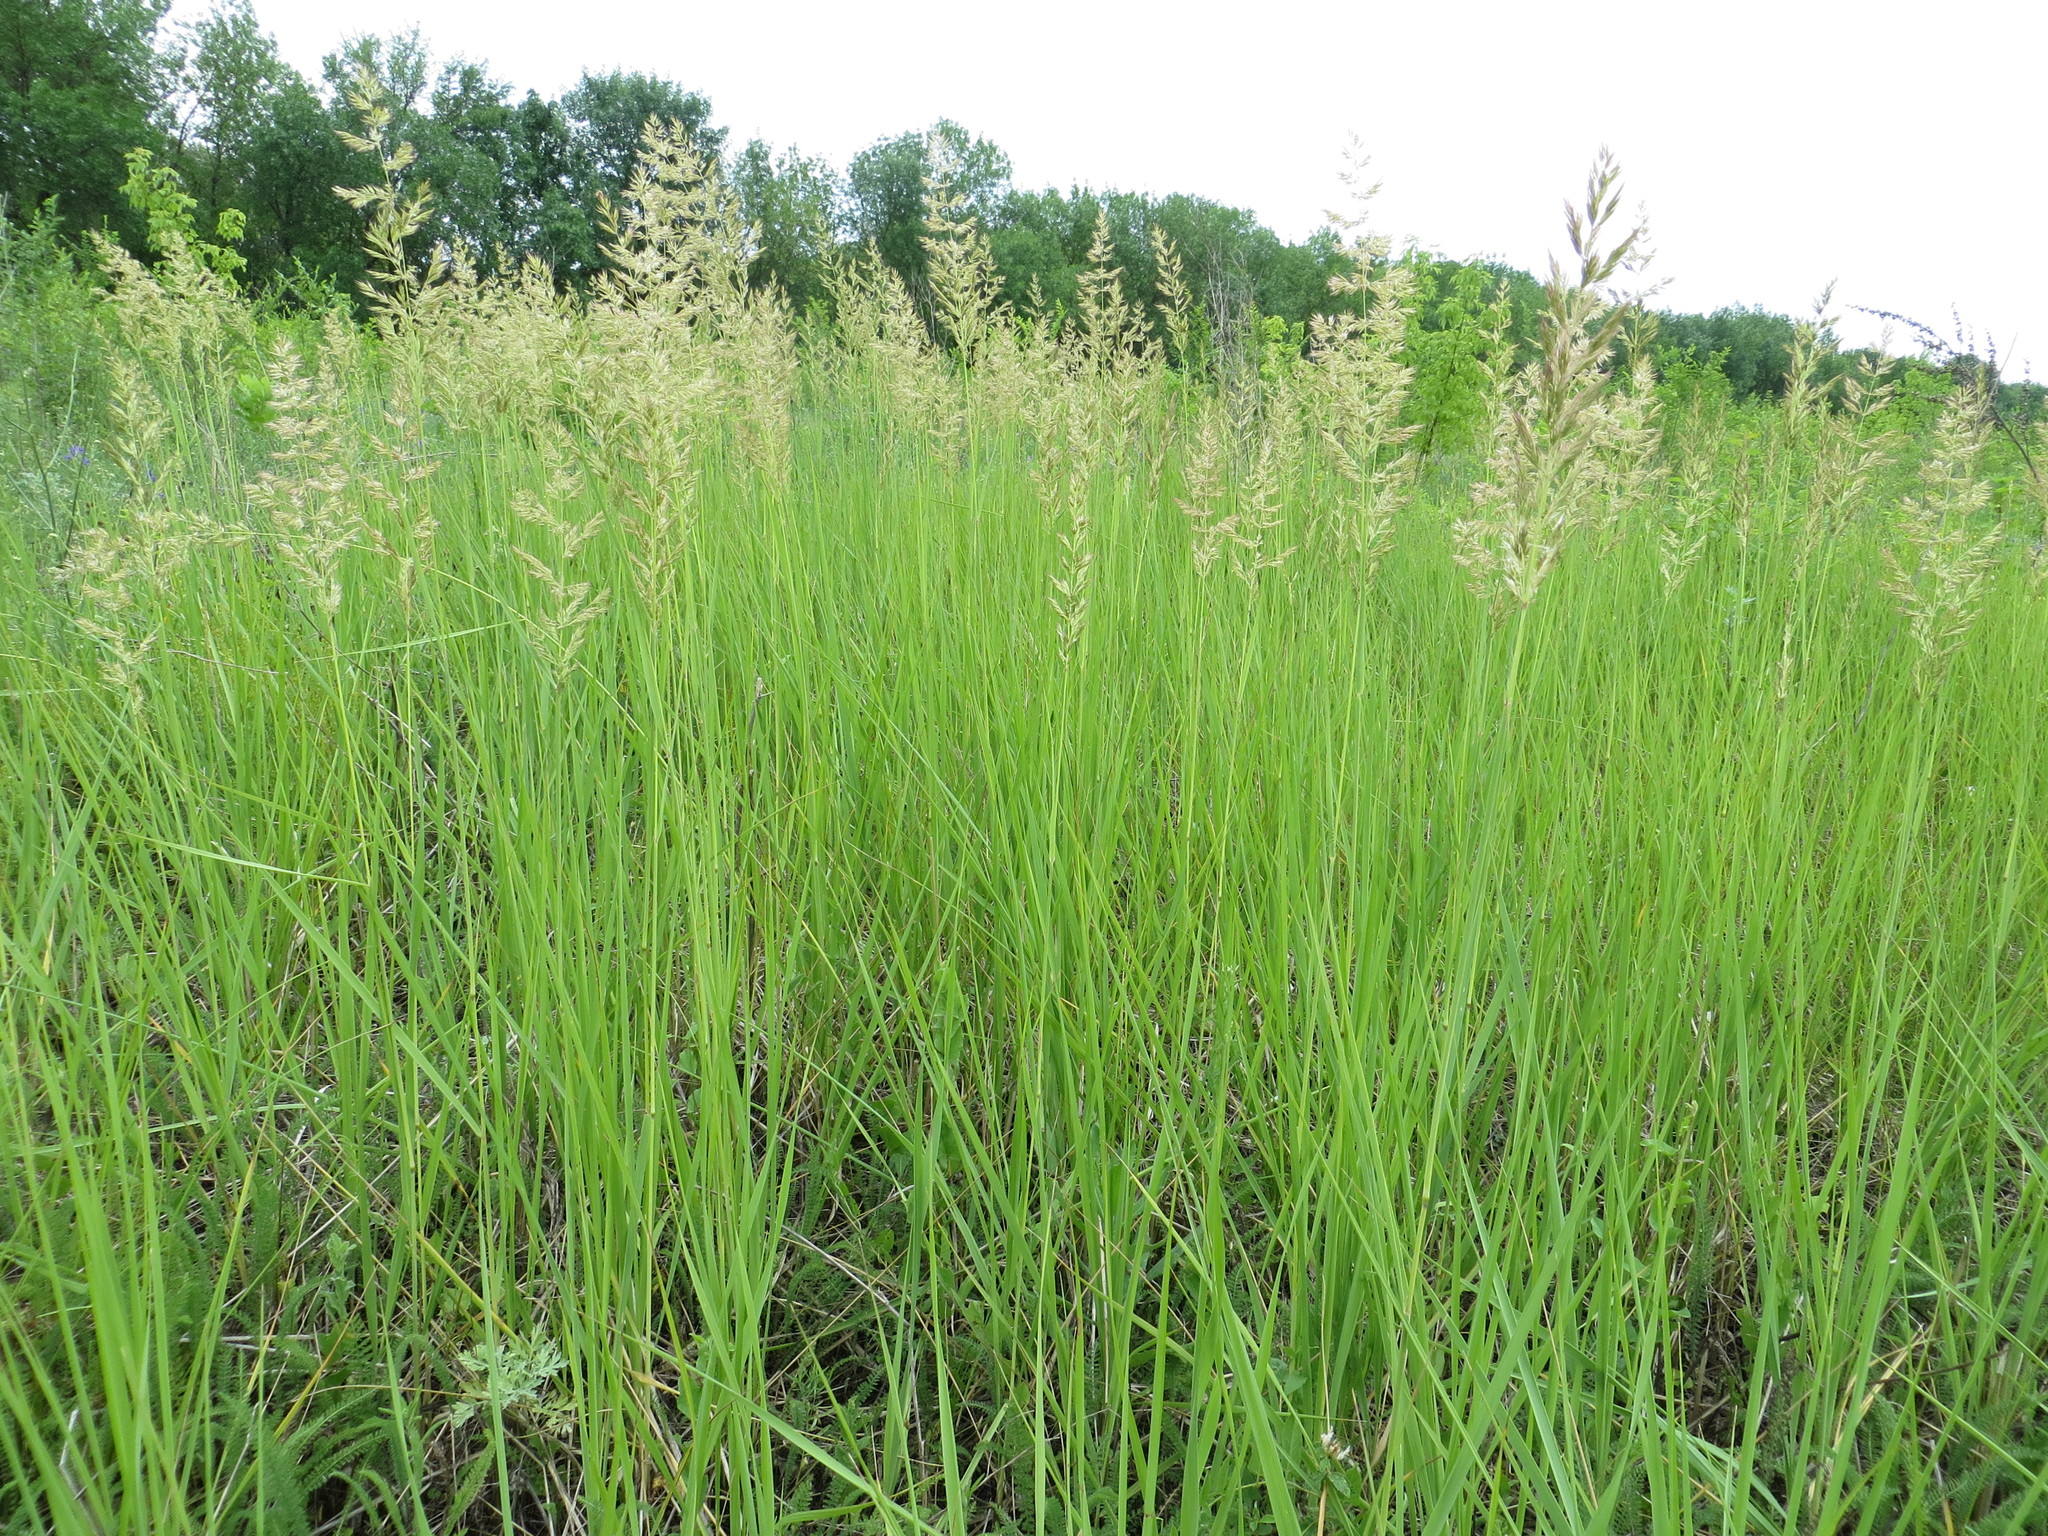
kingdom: Plantae
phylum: Tracheophyta
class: Liliopsida
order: Poales
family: Poaceae
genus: Calamagrostis
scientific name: Calamagrostis epigejos
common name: Wood small-reed
